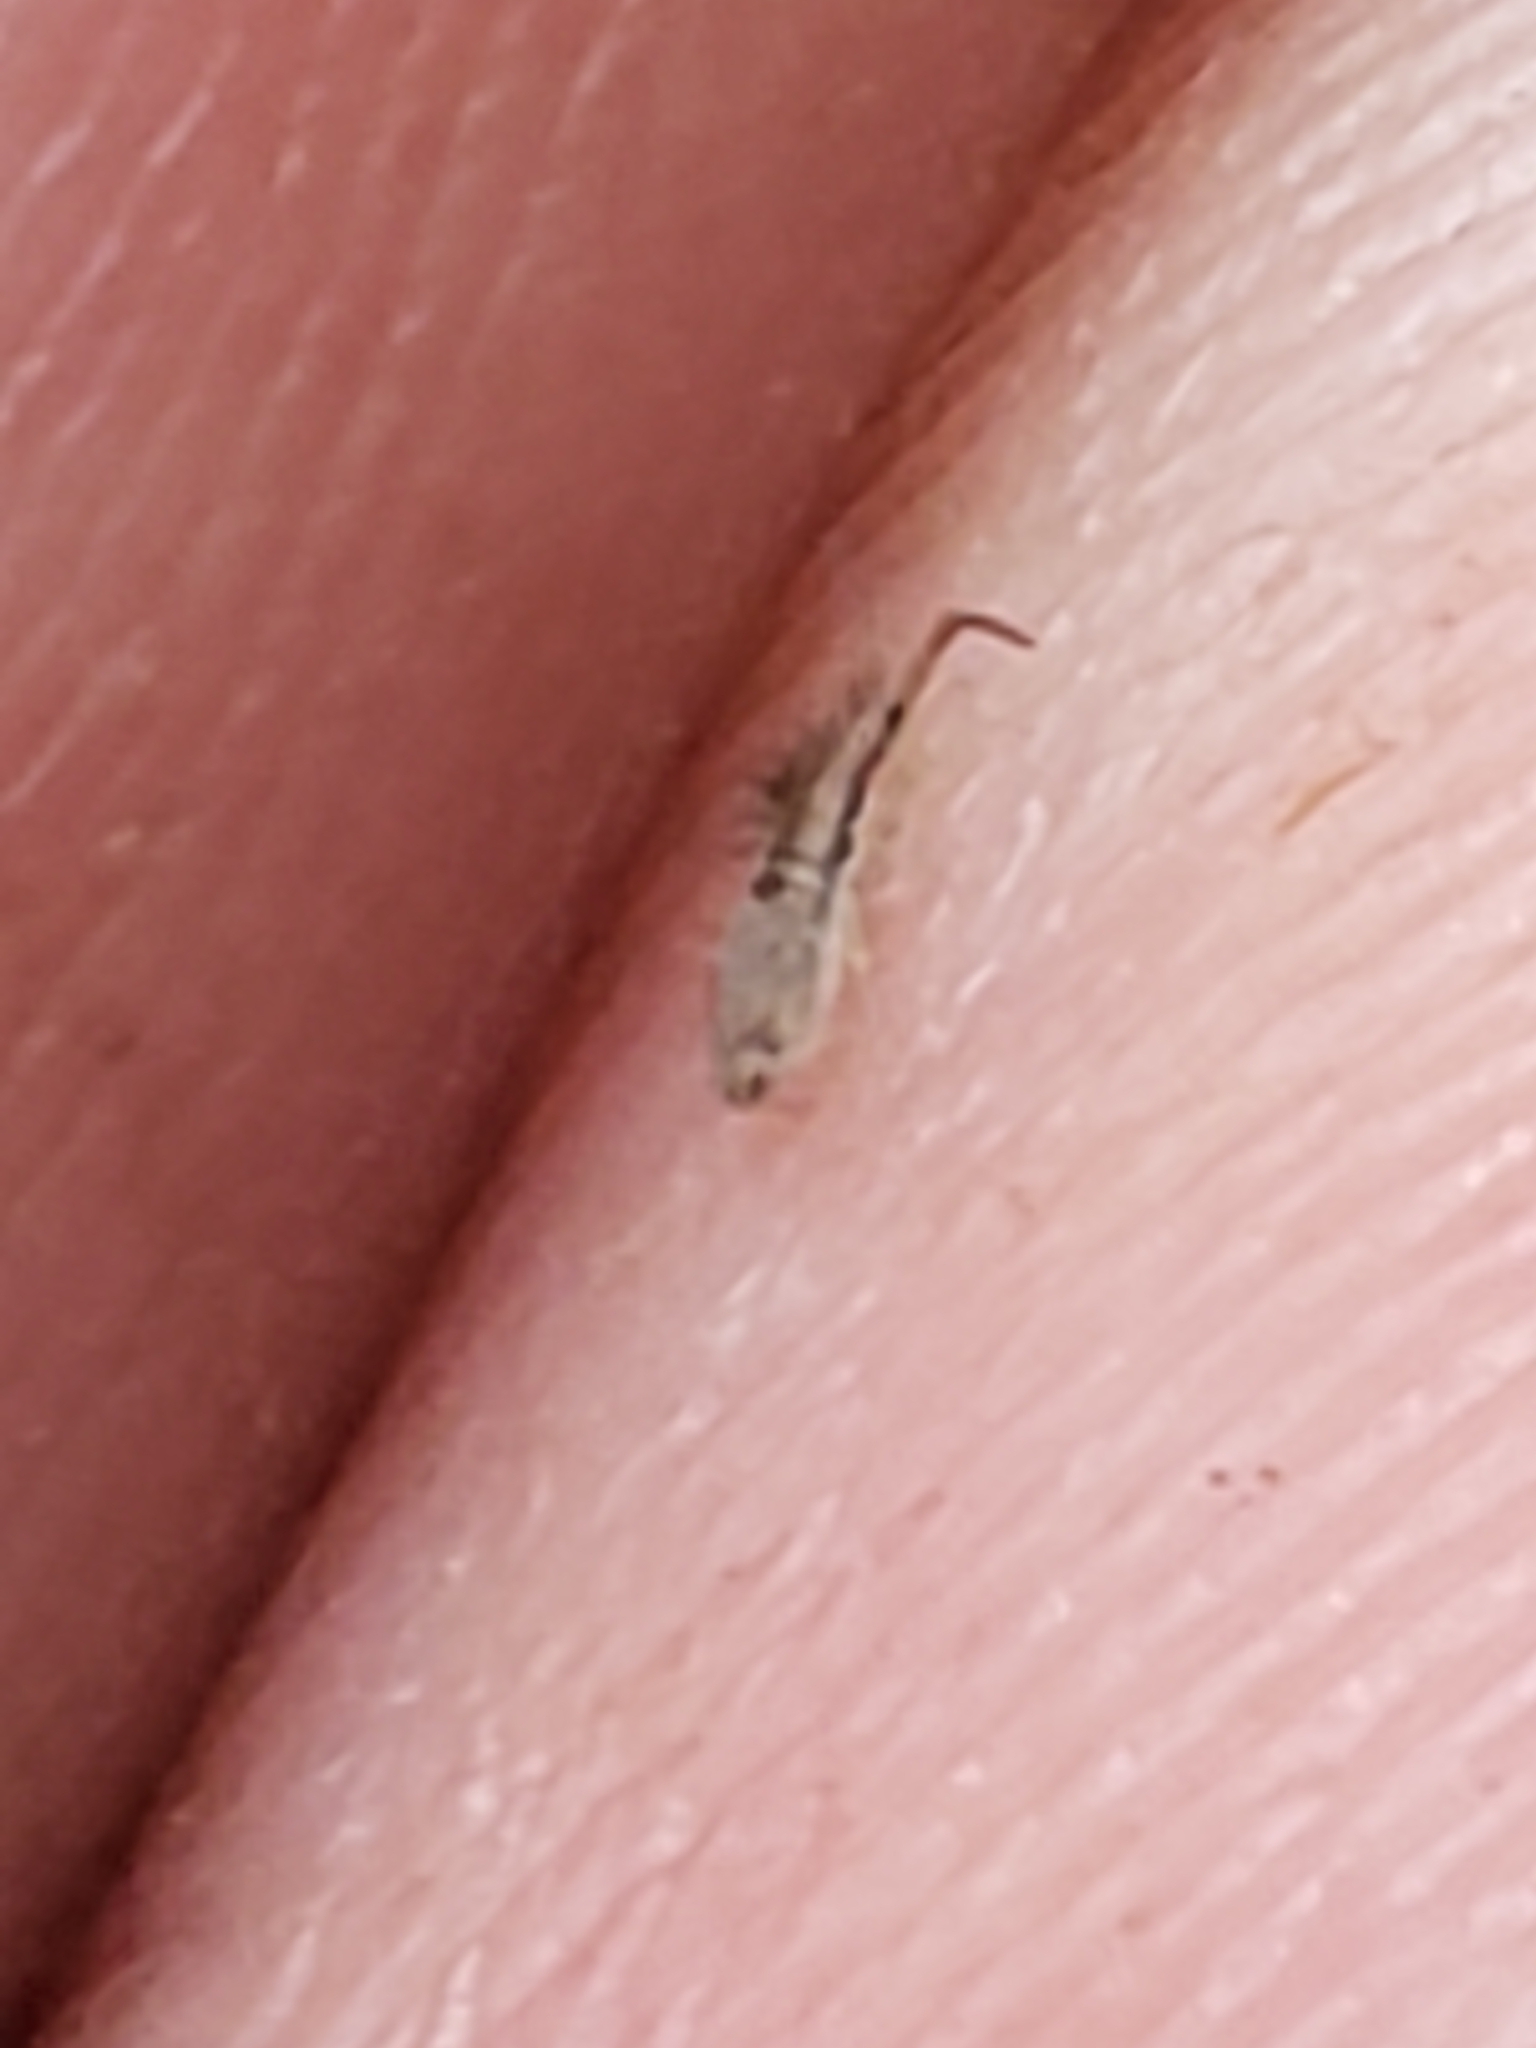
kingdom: Animalia
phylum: Arthropoda
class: Collembola
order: Entomobryomorpha
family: Entomobryidae
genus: Homidia
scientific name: Homidia socia
